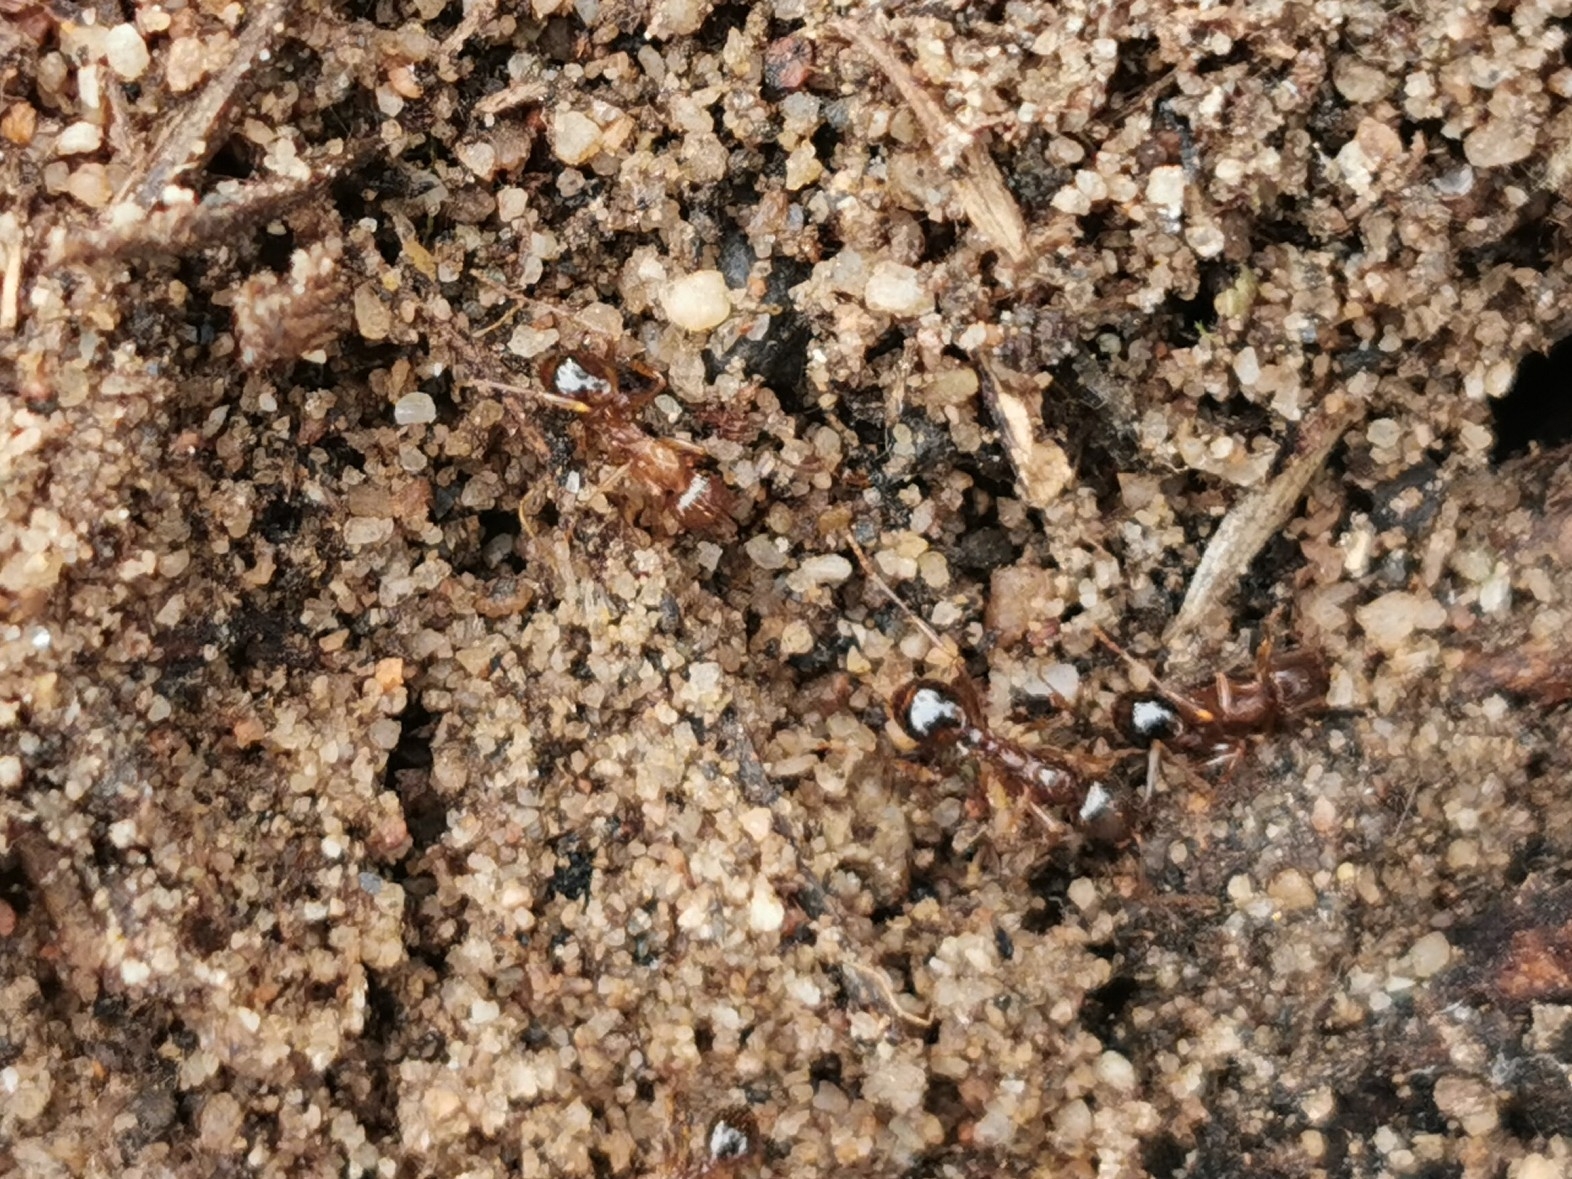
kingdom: Animalia
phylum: Arthropoda
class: Insecta
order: Hymenoptera
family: Formicidae
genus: Aphaenogaster
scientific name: Aphaenogaster occidentalis
